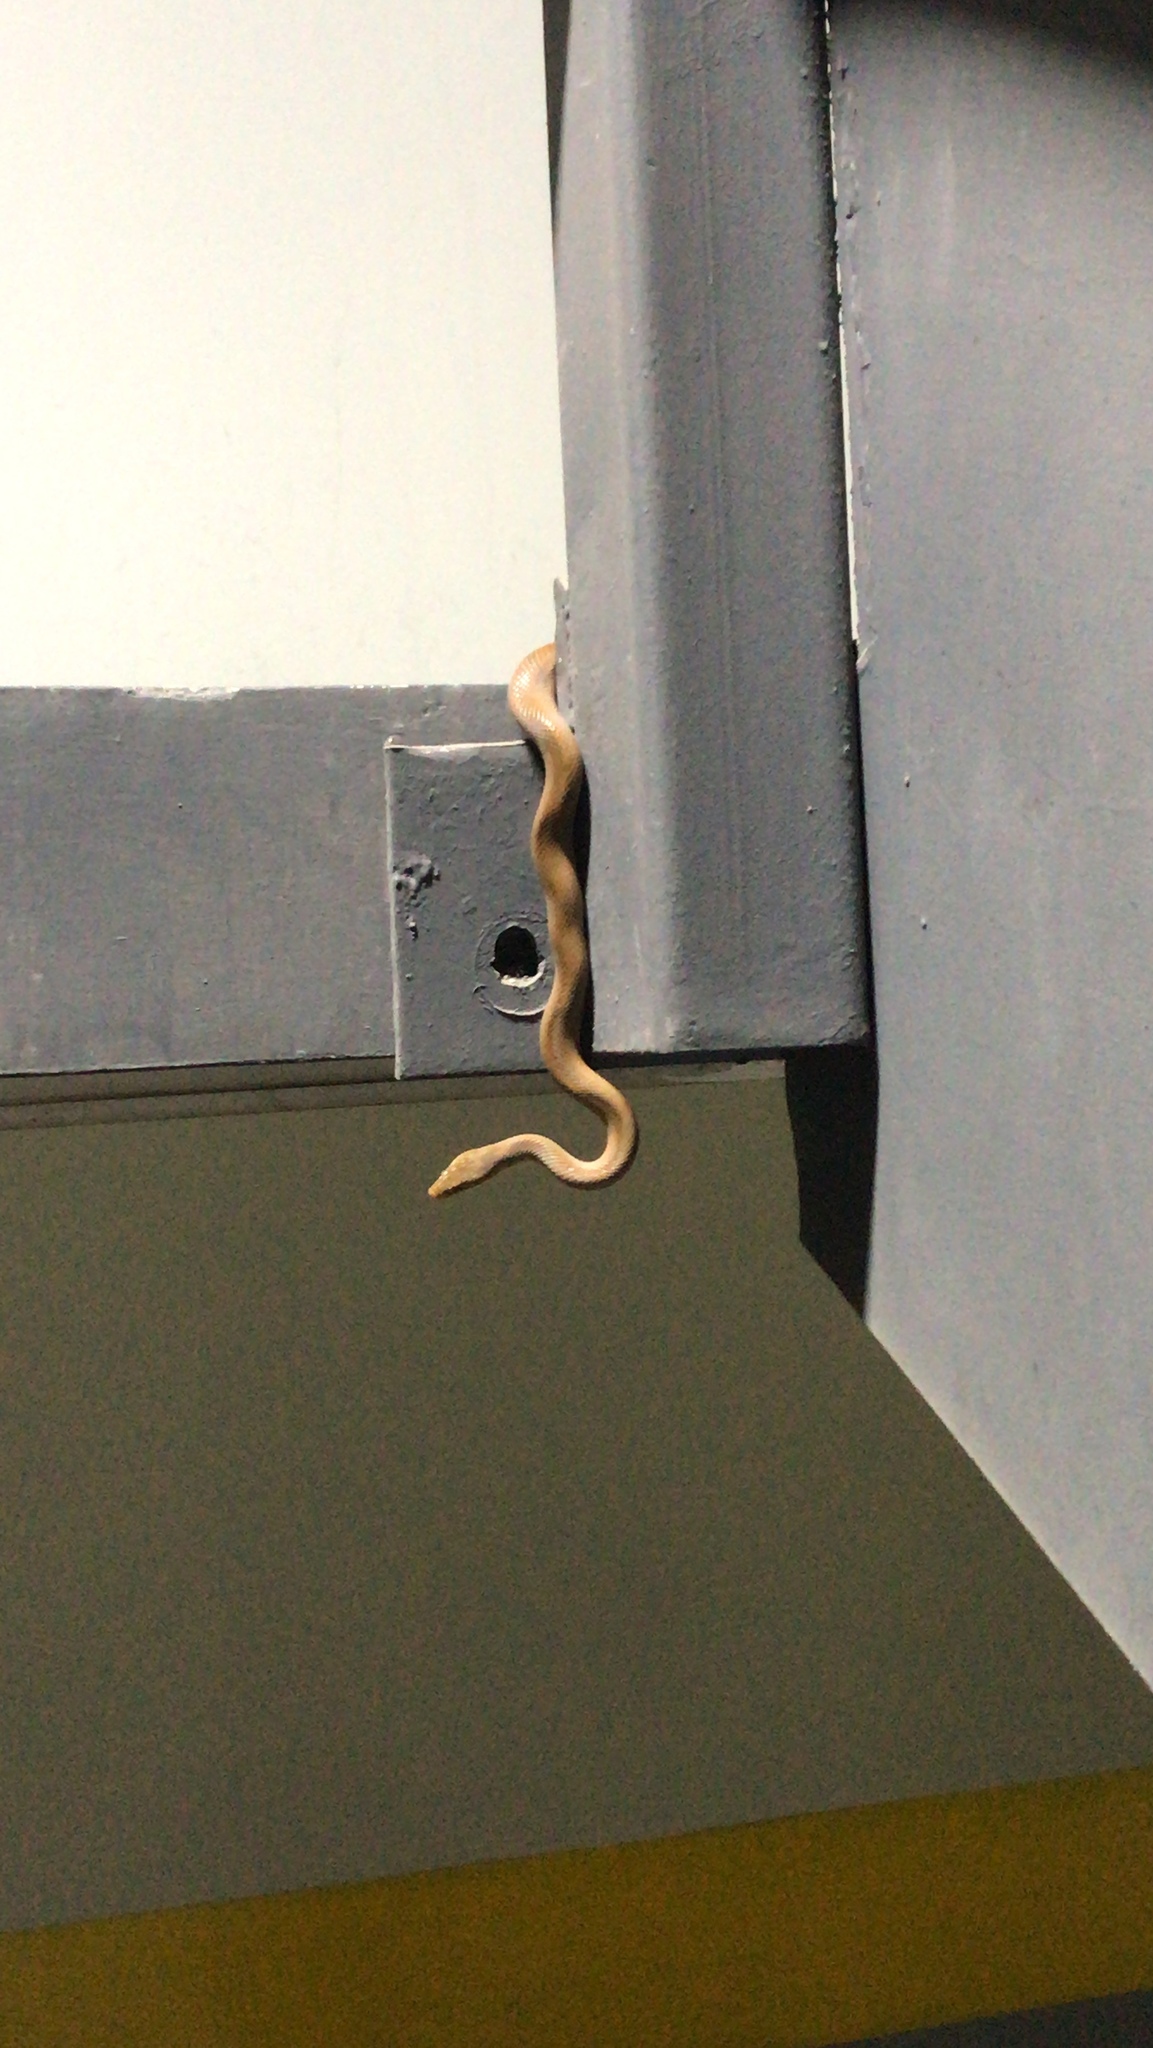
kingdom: Animalia
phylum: Chordata
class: Squamata
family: Colubridae
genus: Senticolis
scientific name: Senticolis triaspis
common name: Green rat snake
